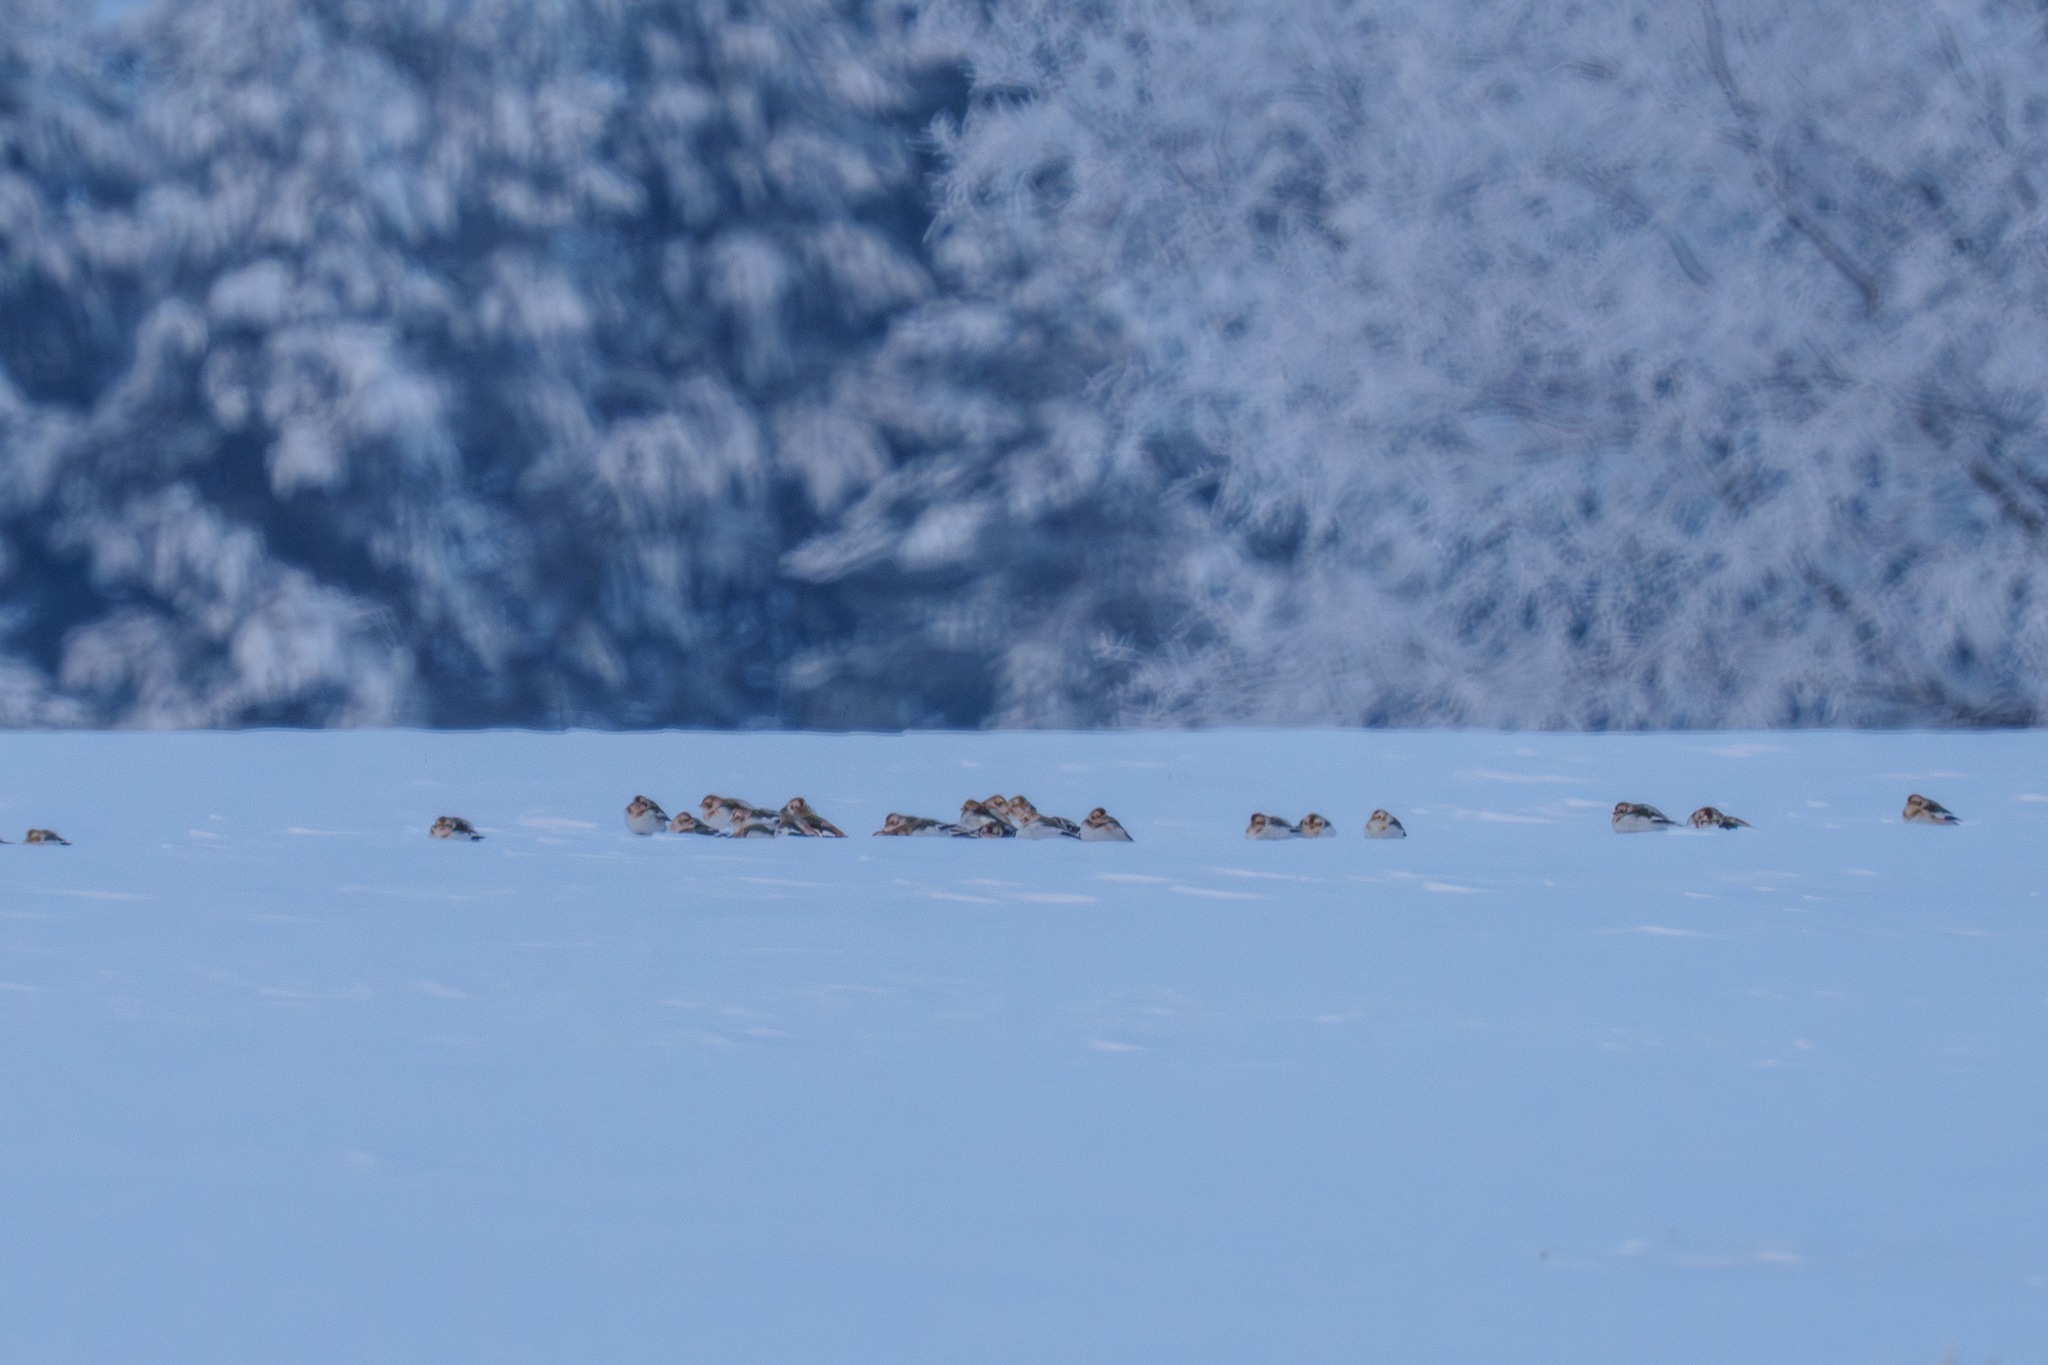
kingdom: Animalia
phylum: Chordata
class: Aves
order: Passeriformes
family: Calcariidae
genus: Plectrophenax
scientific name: Plectrophenax nivalis
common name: Snow bunting
